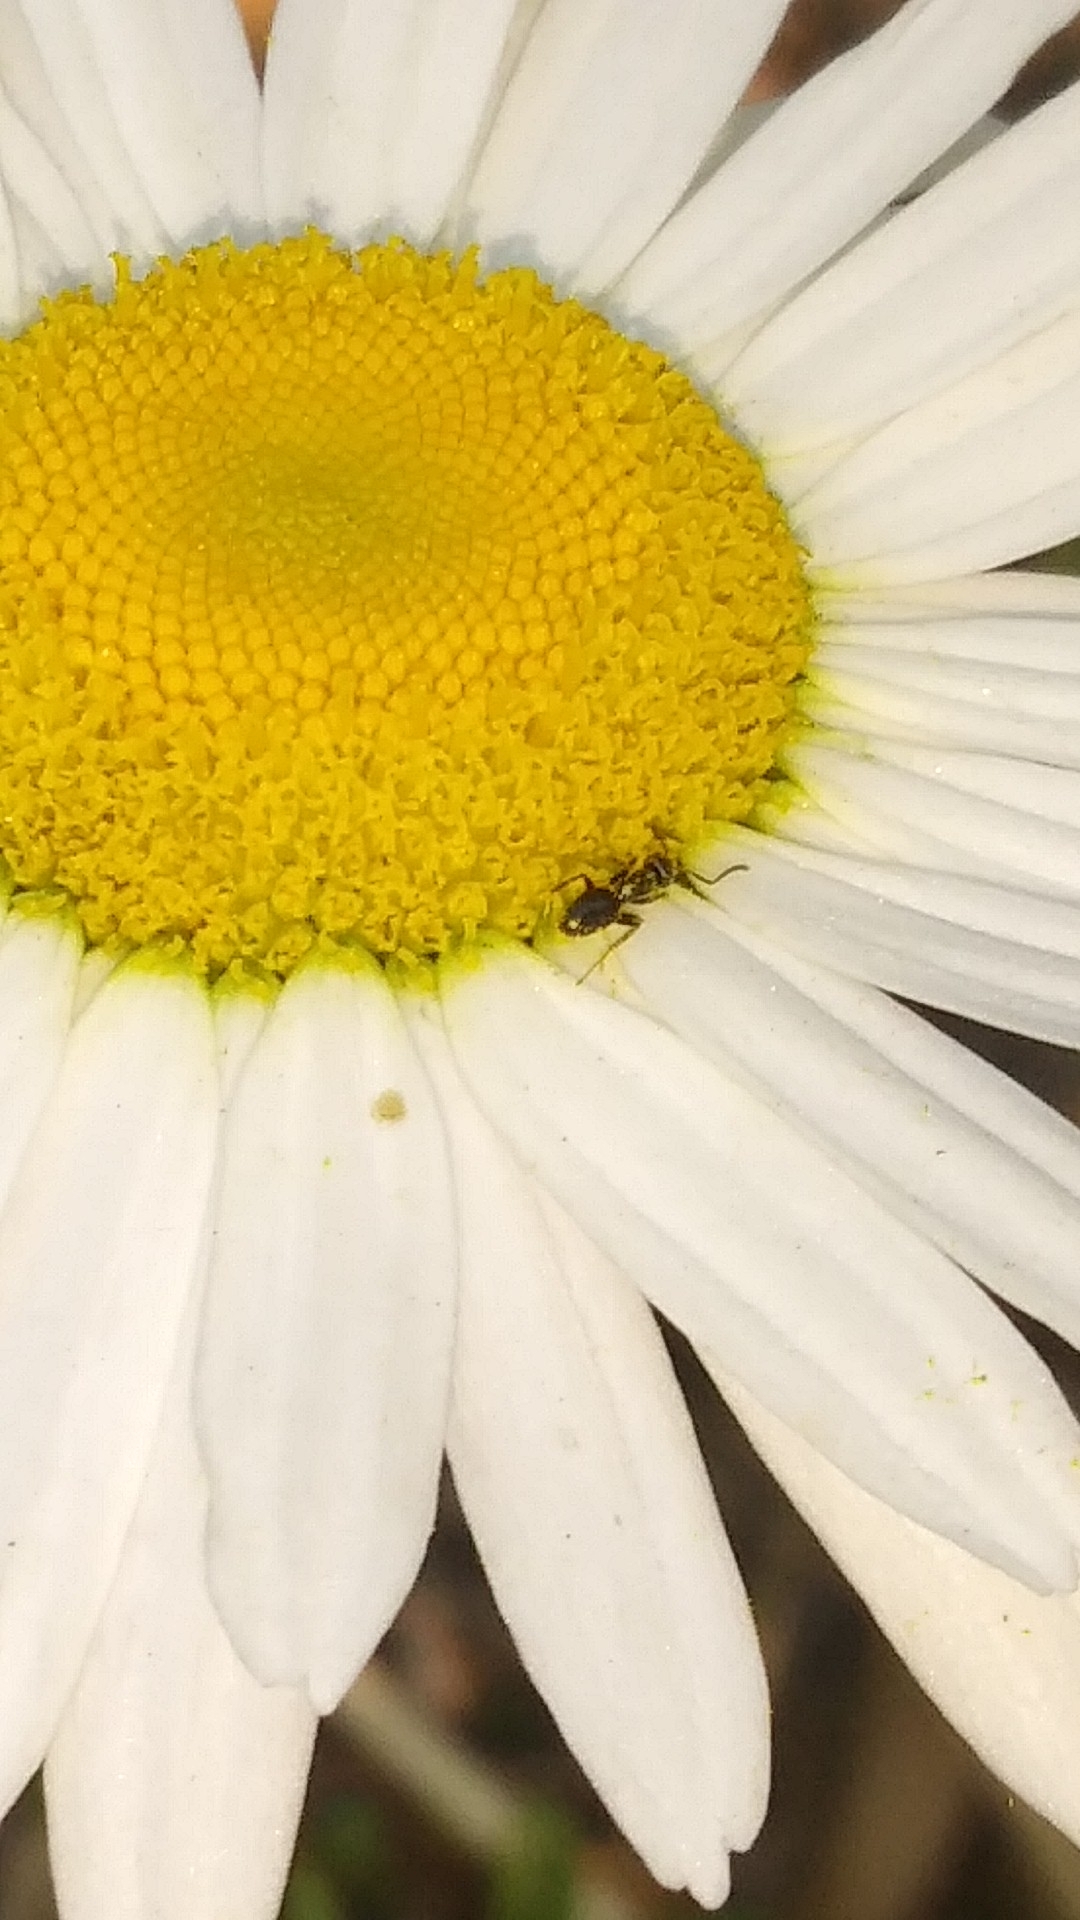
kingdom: Animalia
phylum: Arthropoda
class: Insecta
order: Hymenoptera
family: Formicidae
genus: Tapinoma
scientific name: Tapinoma sessile
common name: Odorous house ant
